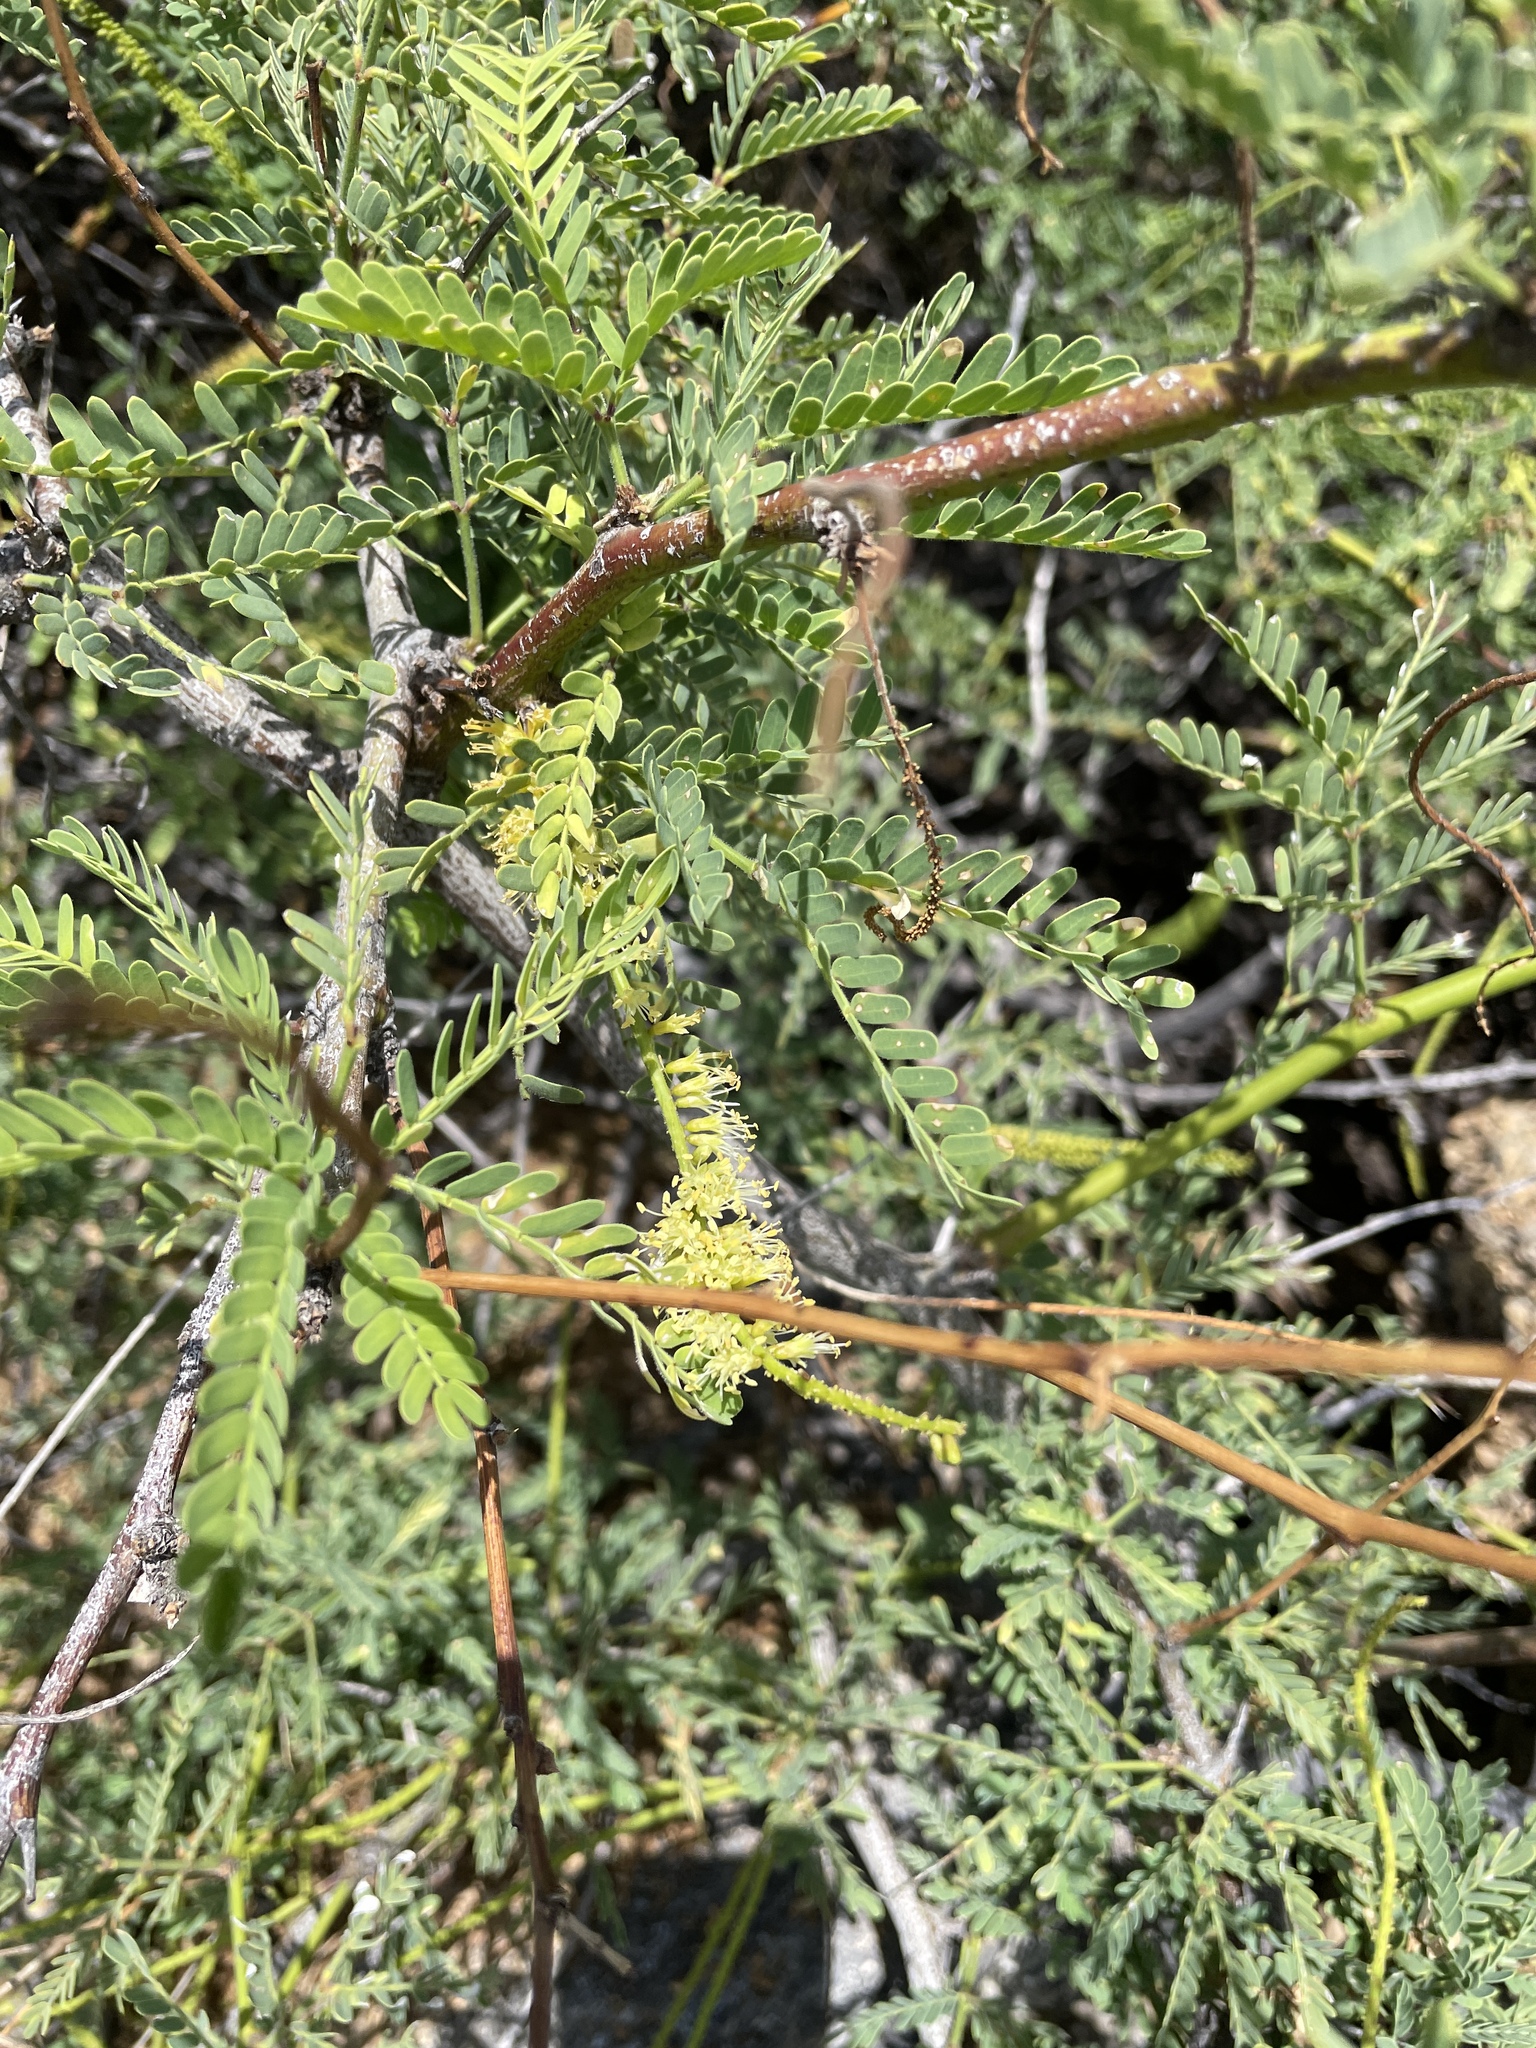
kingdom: Plantae
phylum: Tracheophyta
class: Magnoliopsida
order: Fabales
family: Fabaceae
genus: Prosopis
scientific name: Prosopis pallida
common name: Mesquite
